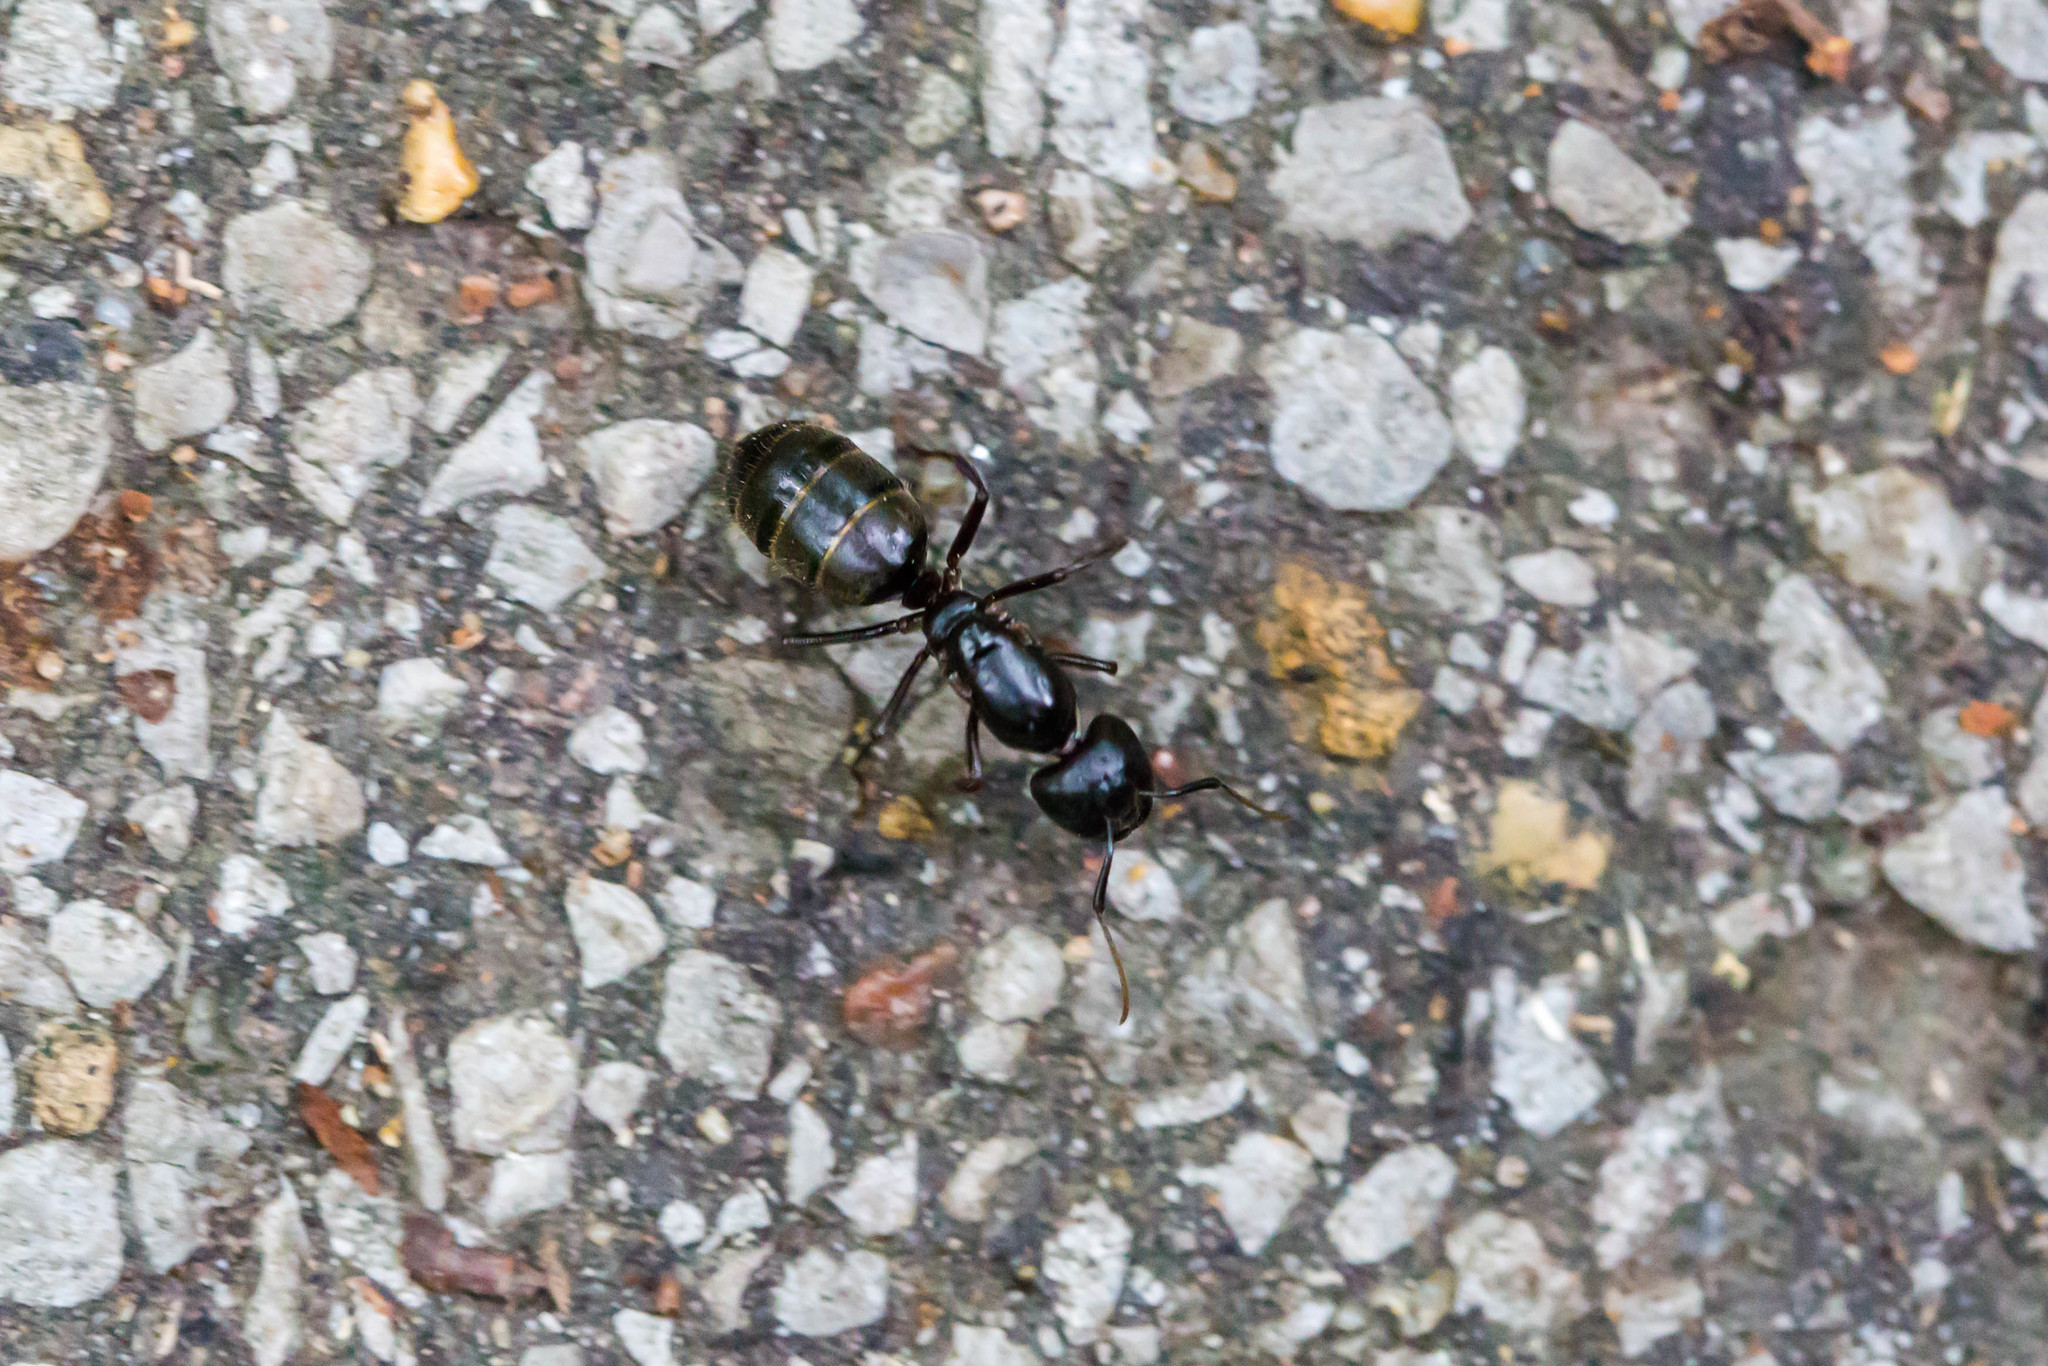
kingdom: Animalia
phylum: Arthropoda
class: Insecta
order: Hymenoptera
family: Formicidae
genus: Camponotus
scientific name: Camponotus pennsylvanicus
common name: Black carpenter ant
